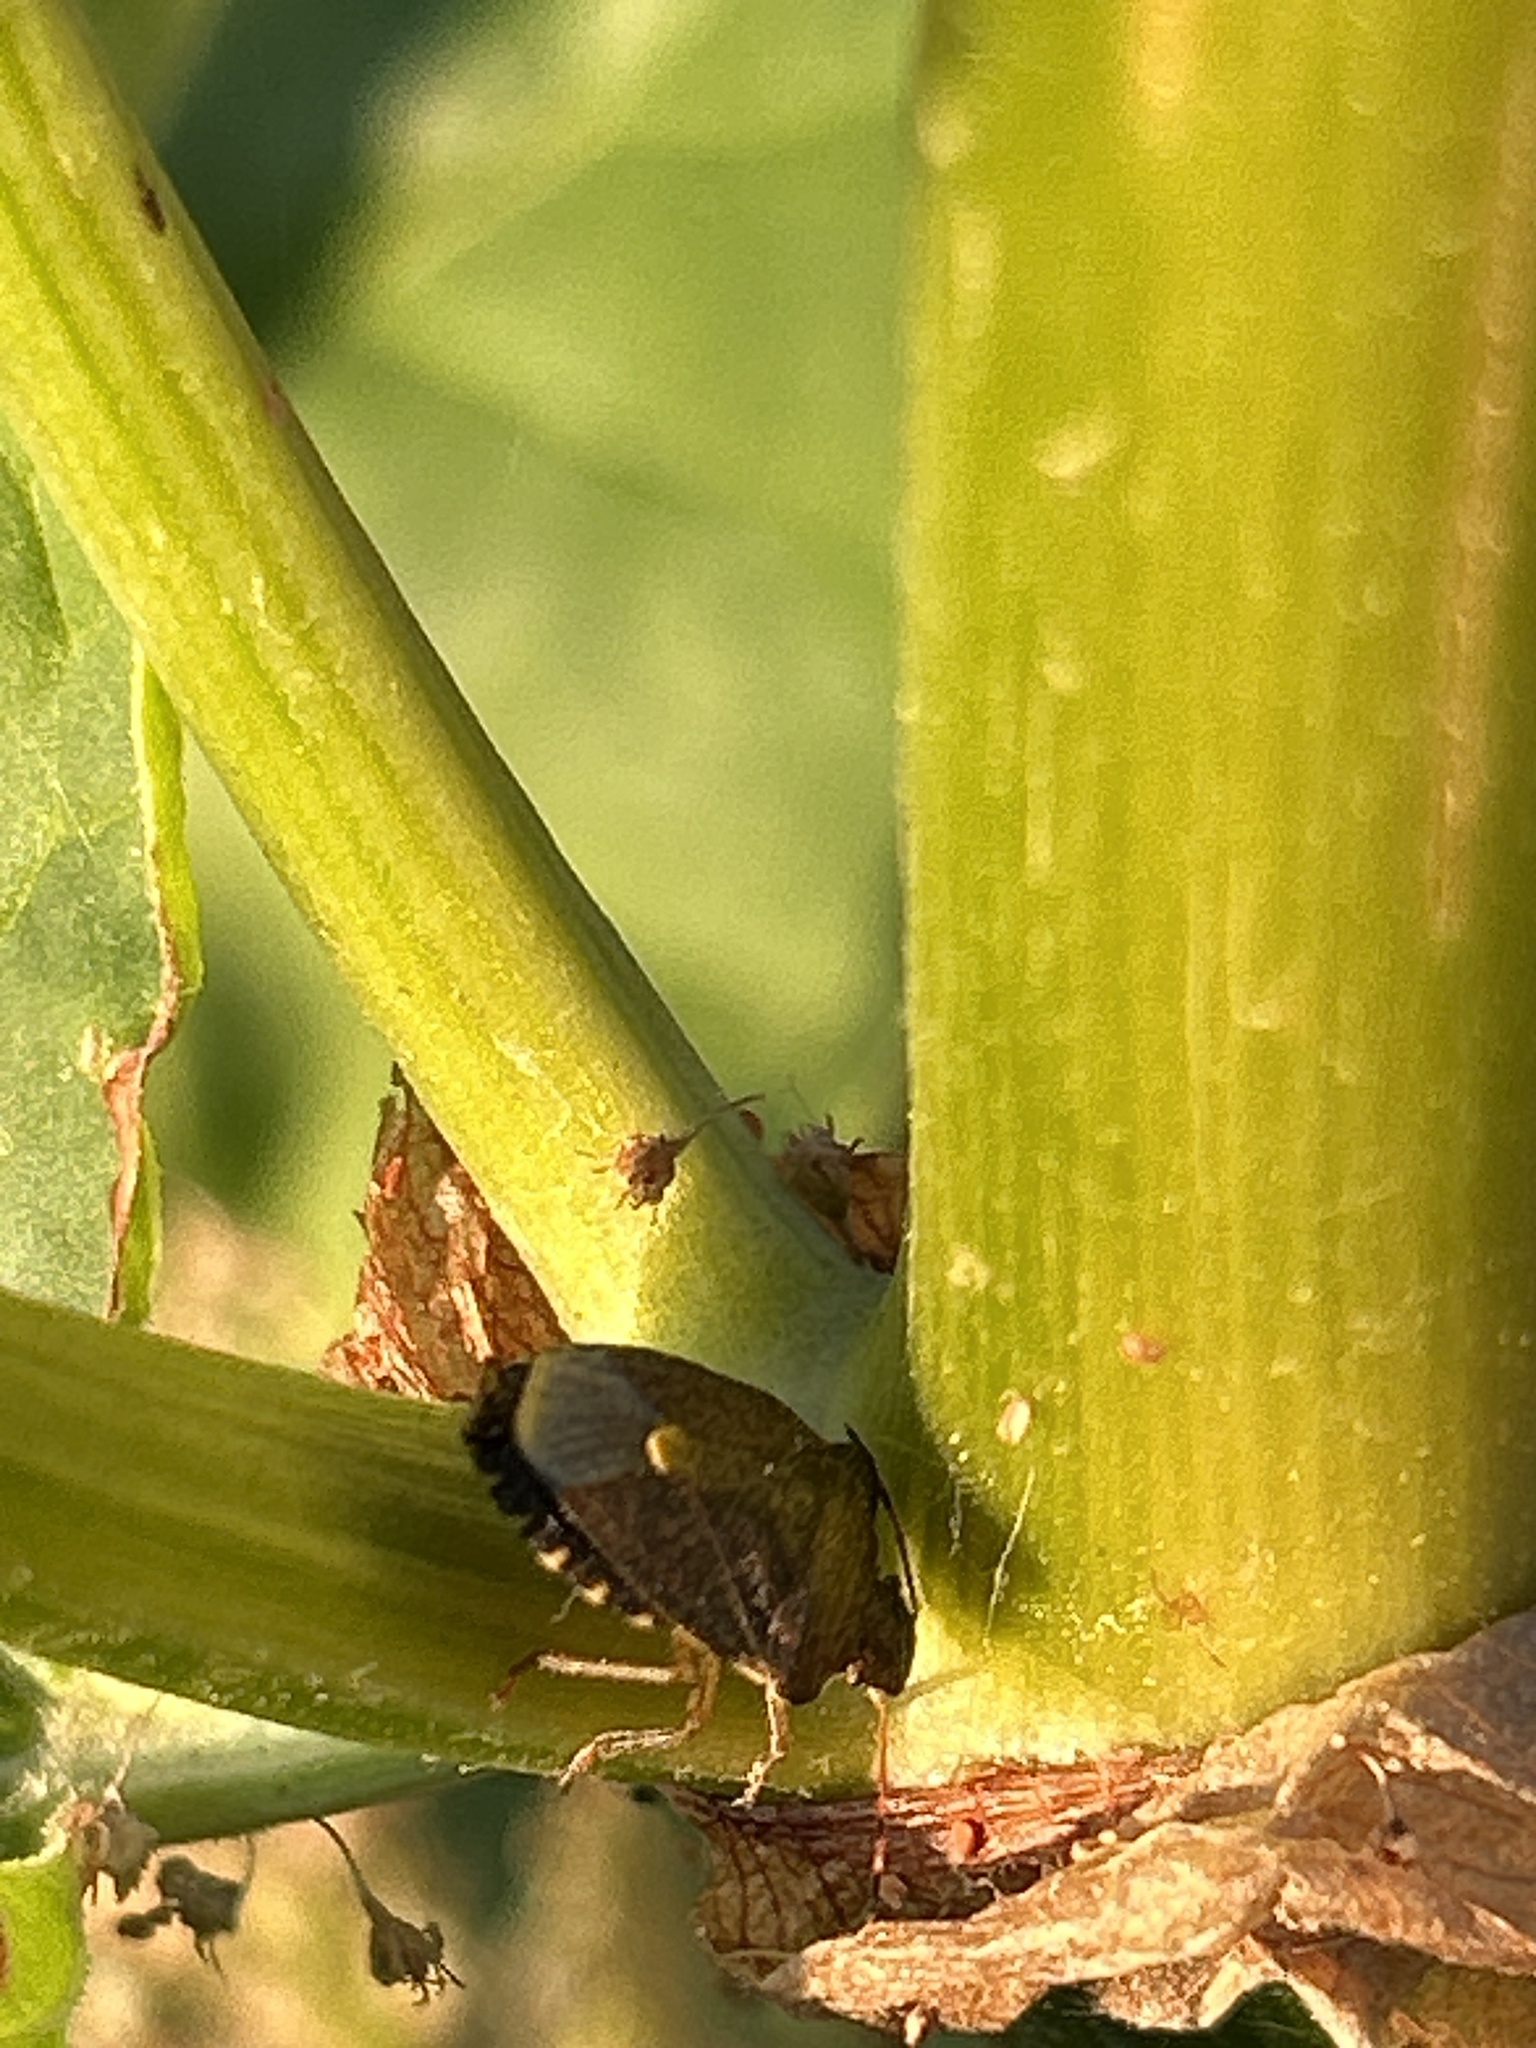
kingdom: Animalia
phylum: Arthropoda
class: Insecta
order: Hemiptera
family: Pentatomidae
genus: Holcostethus
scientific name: Holcostethus strictus
